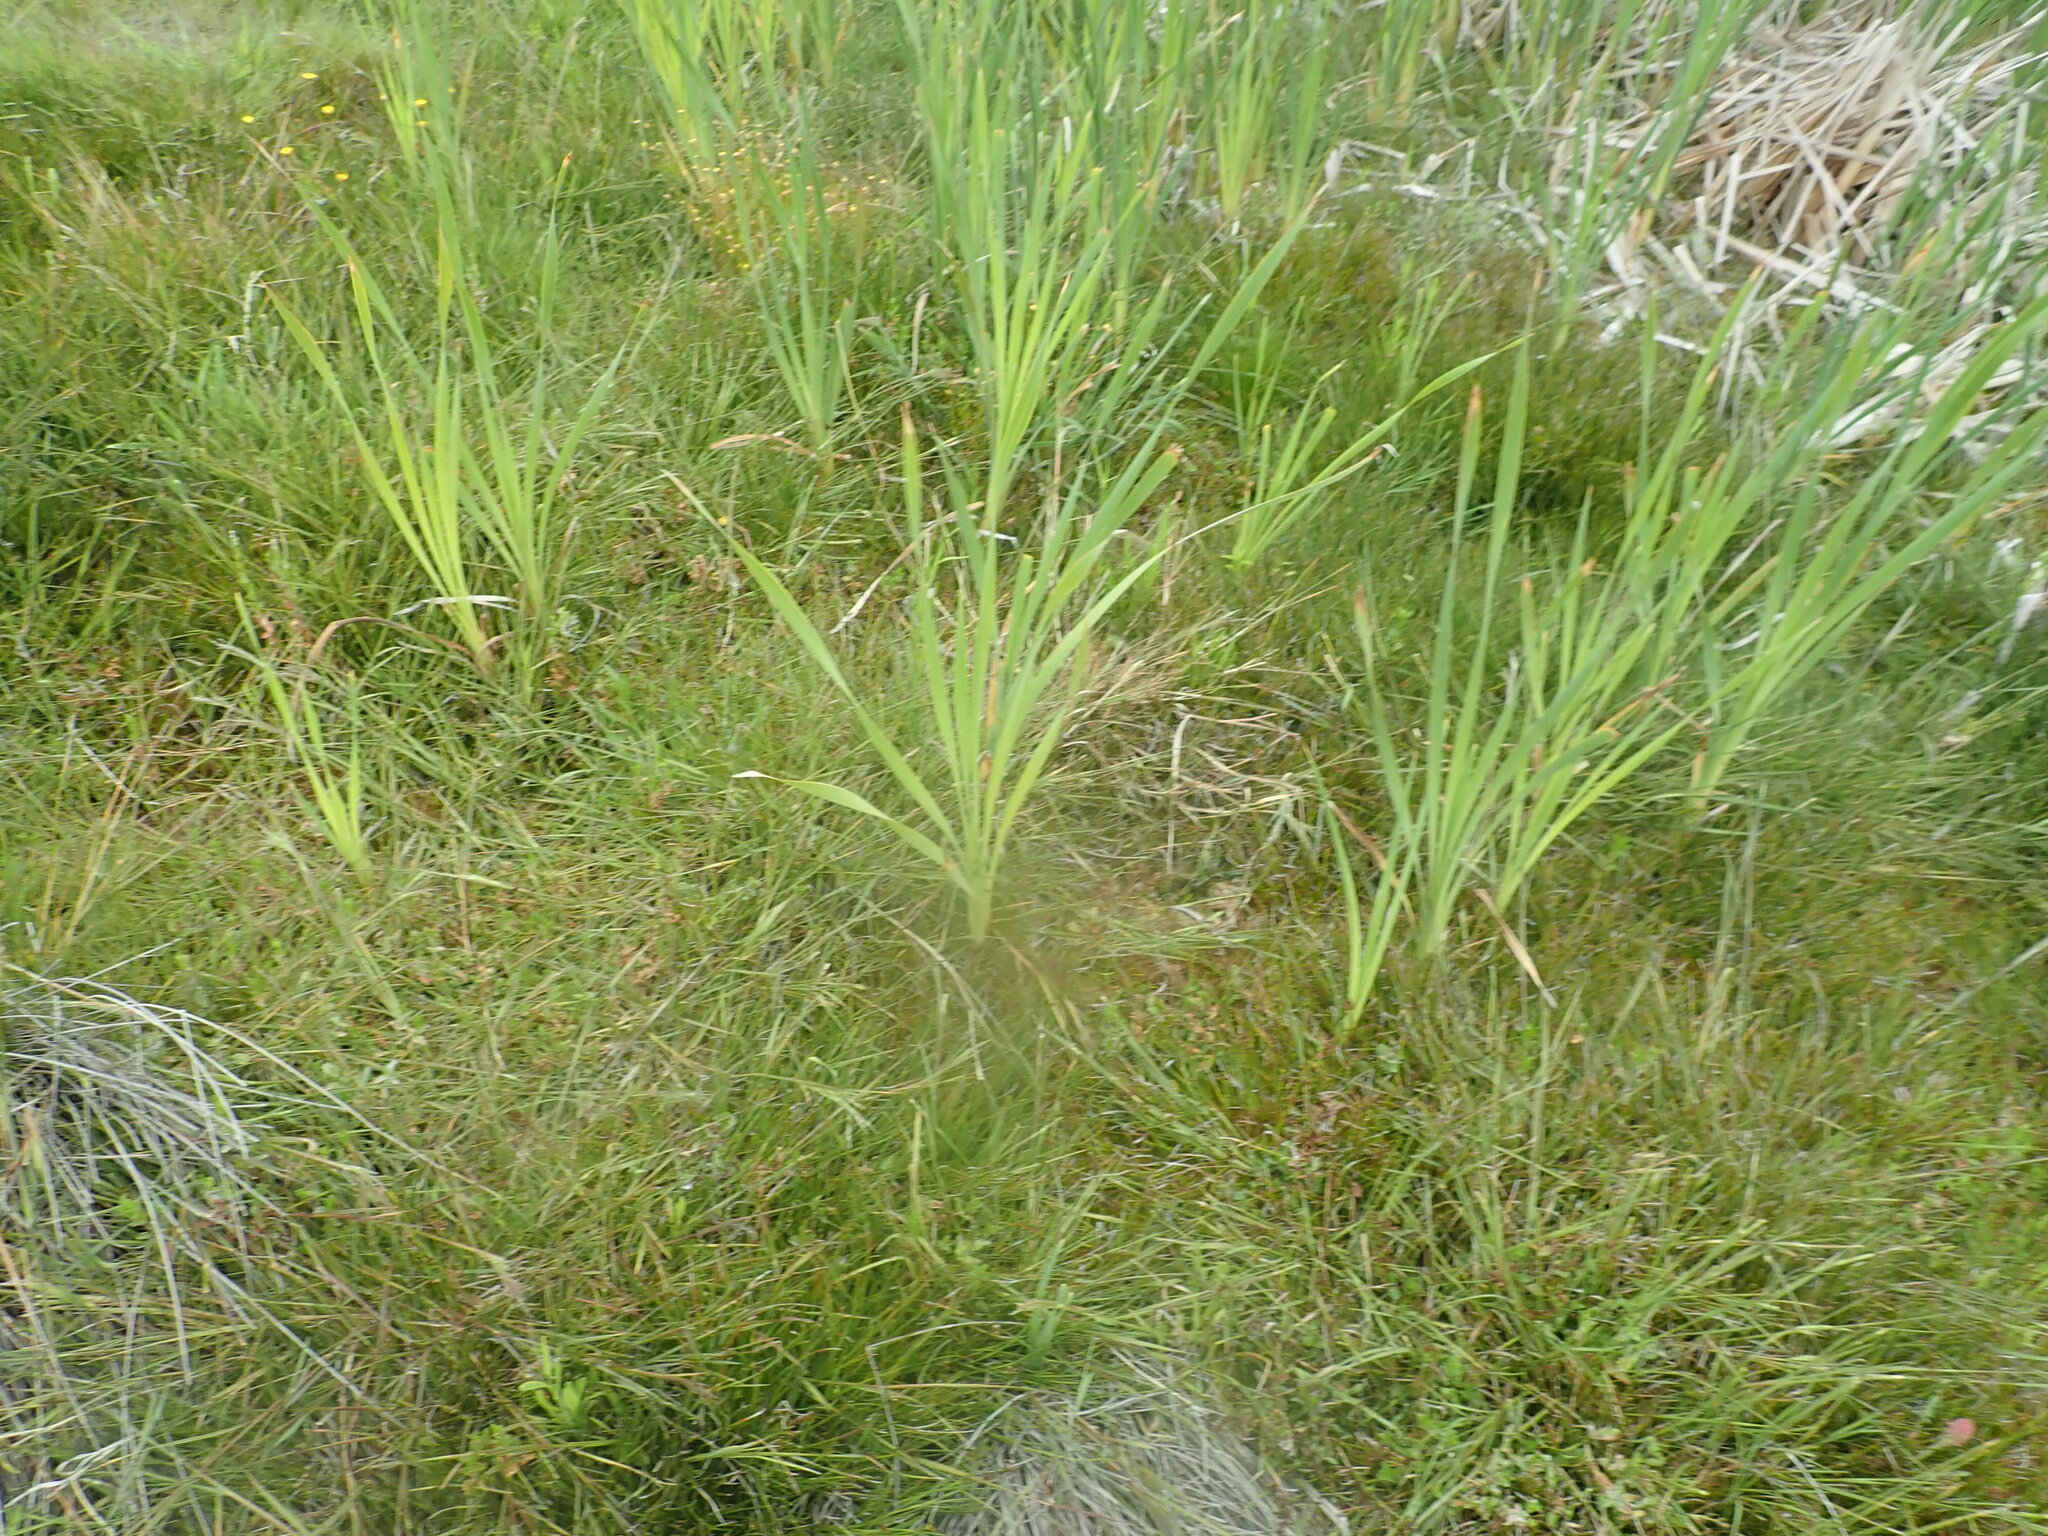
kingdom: Plantae
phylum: Tracheophyta
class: Liliopsida
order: Poales
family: Typhaceae
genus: Typha
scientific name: Typha orientalis
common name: Bullrush
